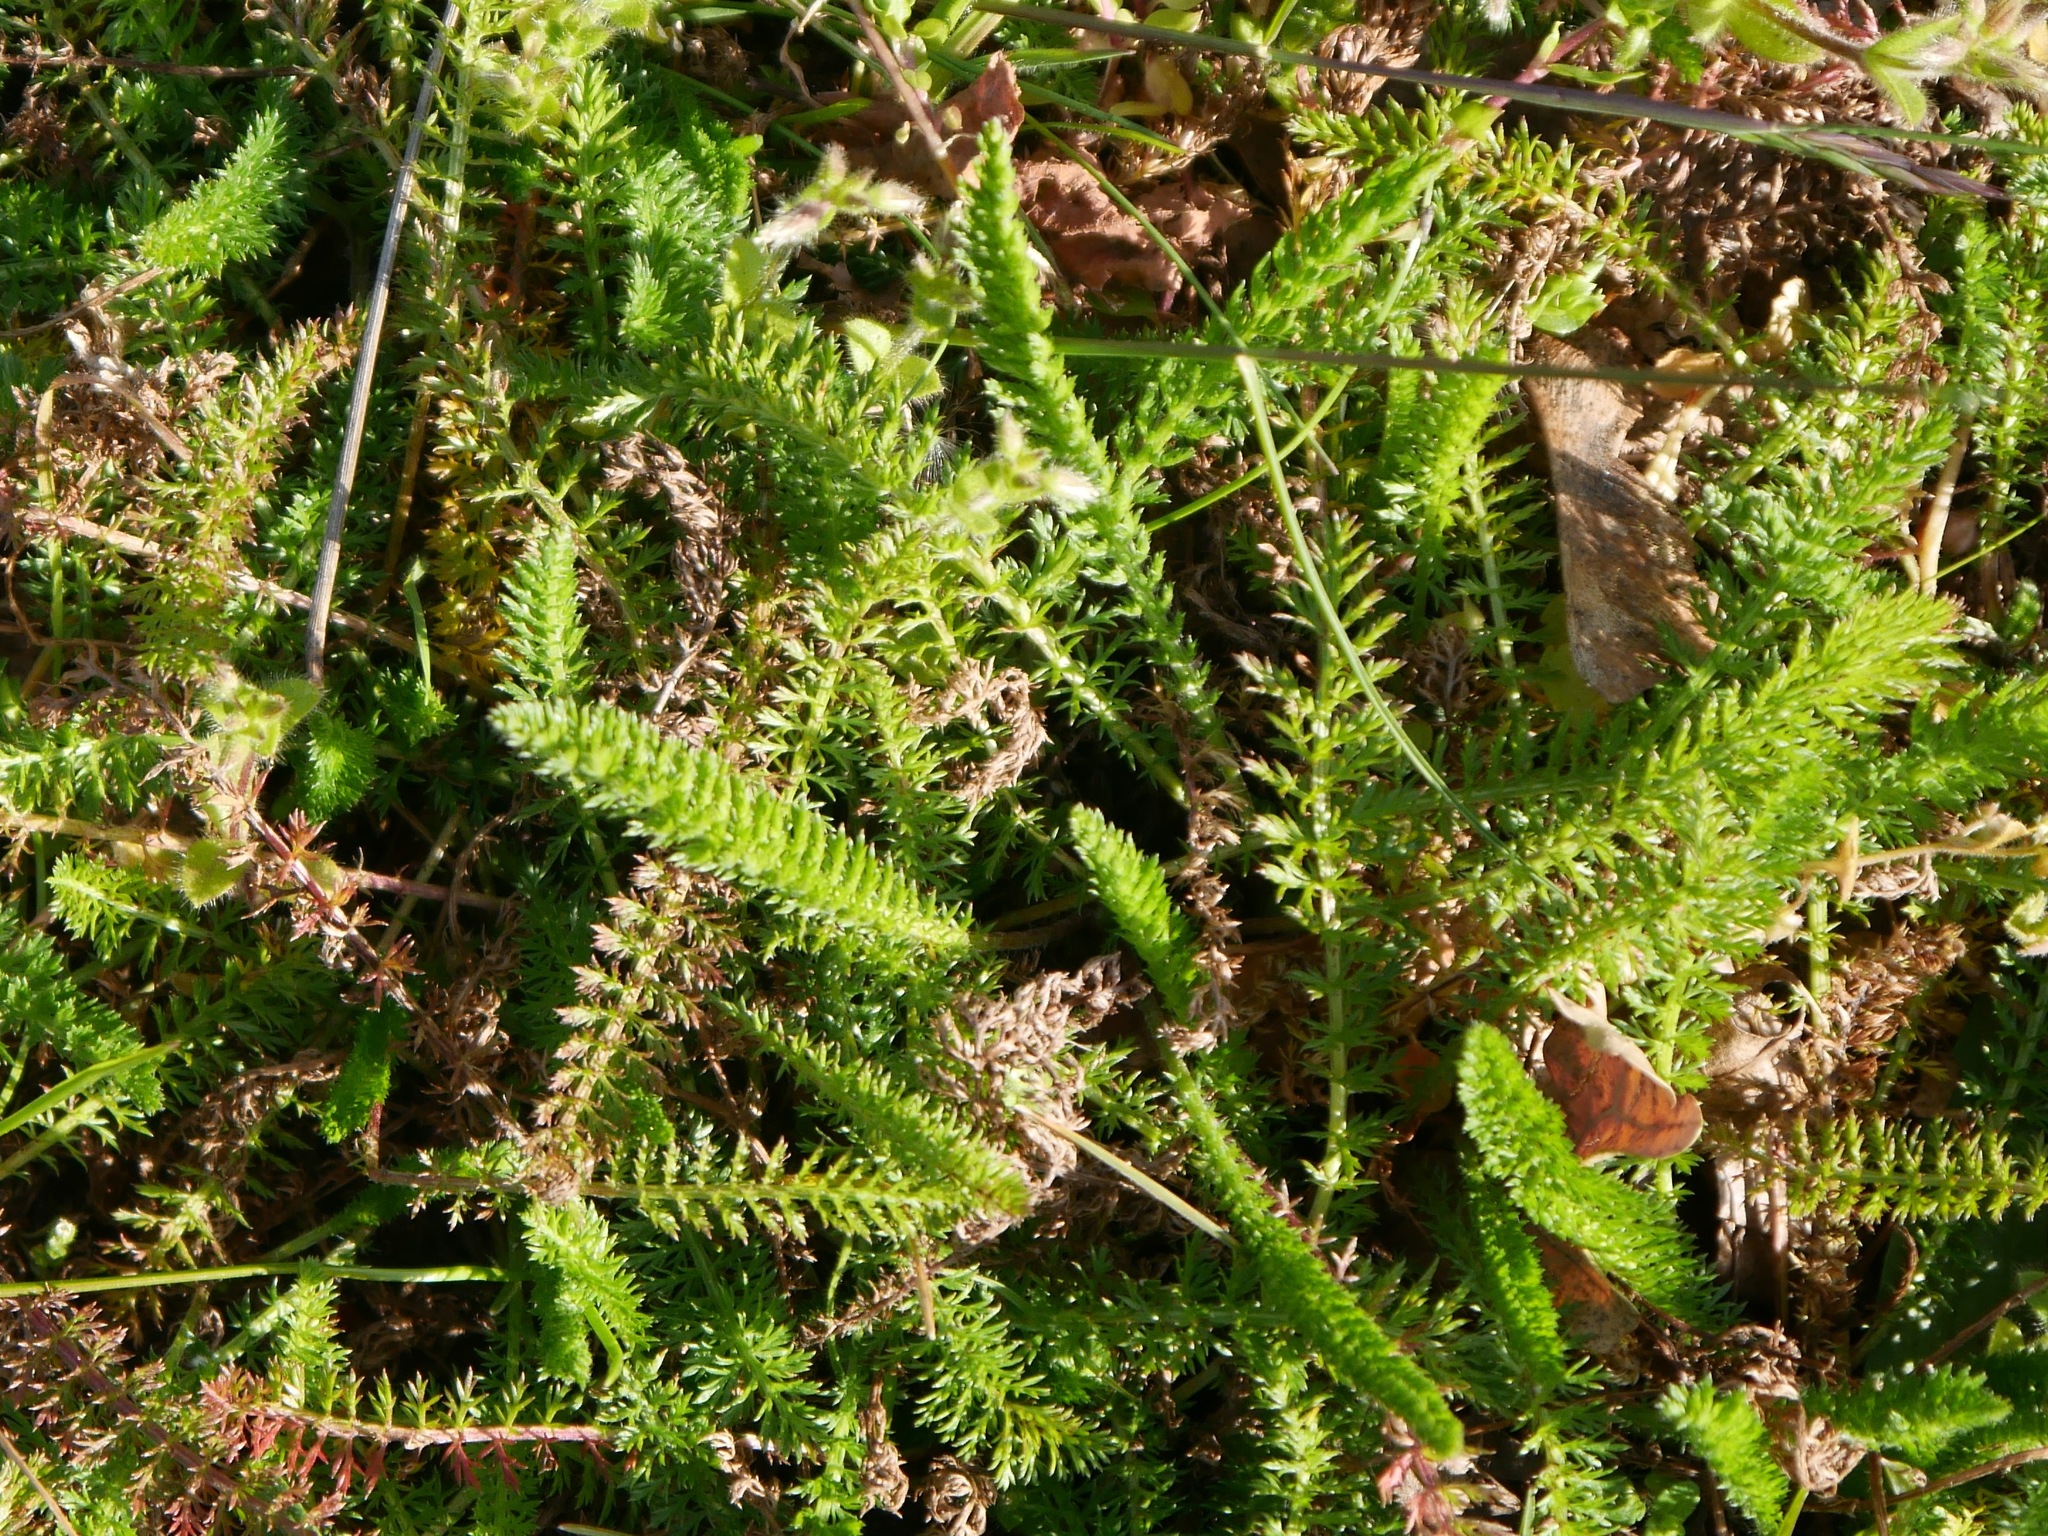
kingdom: Plantae
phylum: Tracheophyta
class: Magnoliopsida
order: Asterales
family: Asteraceae
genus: Achillea
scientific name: Achillea millefolium
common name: Yarrow
